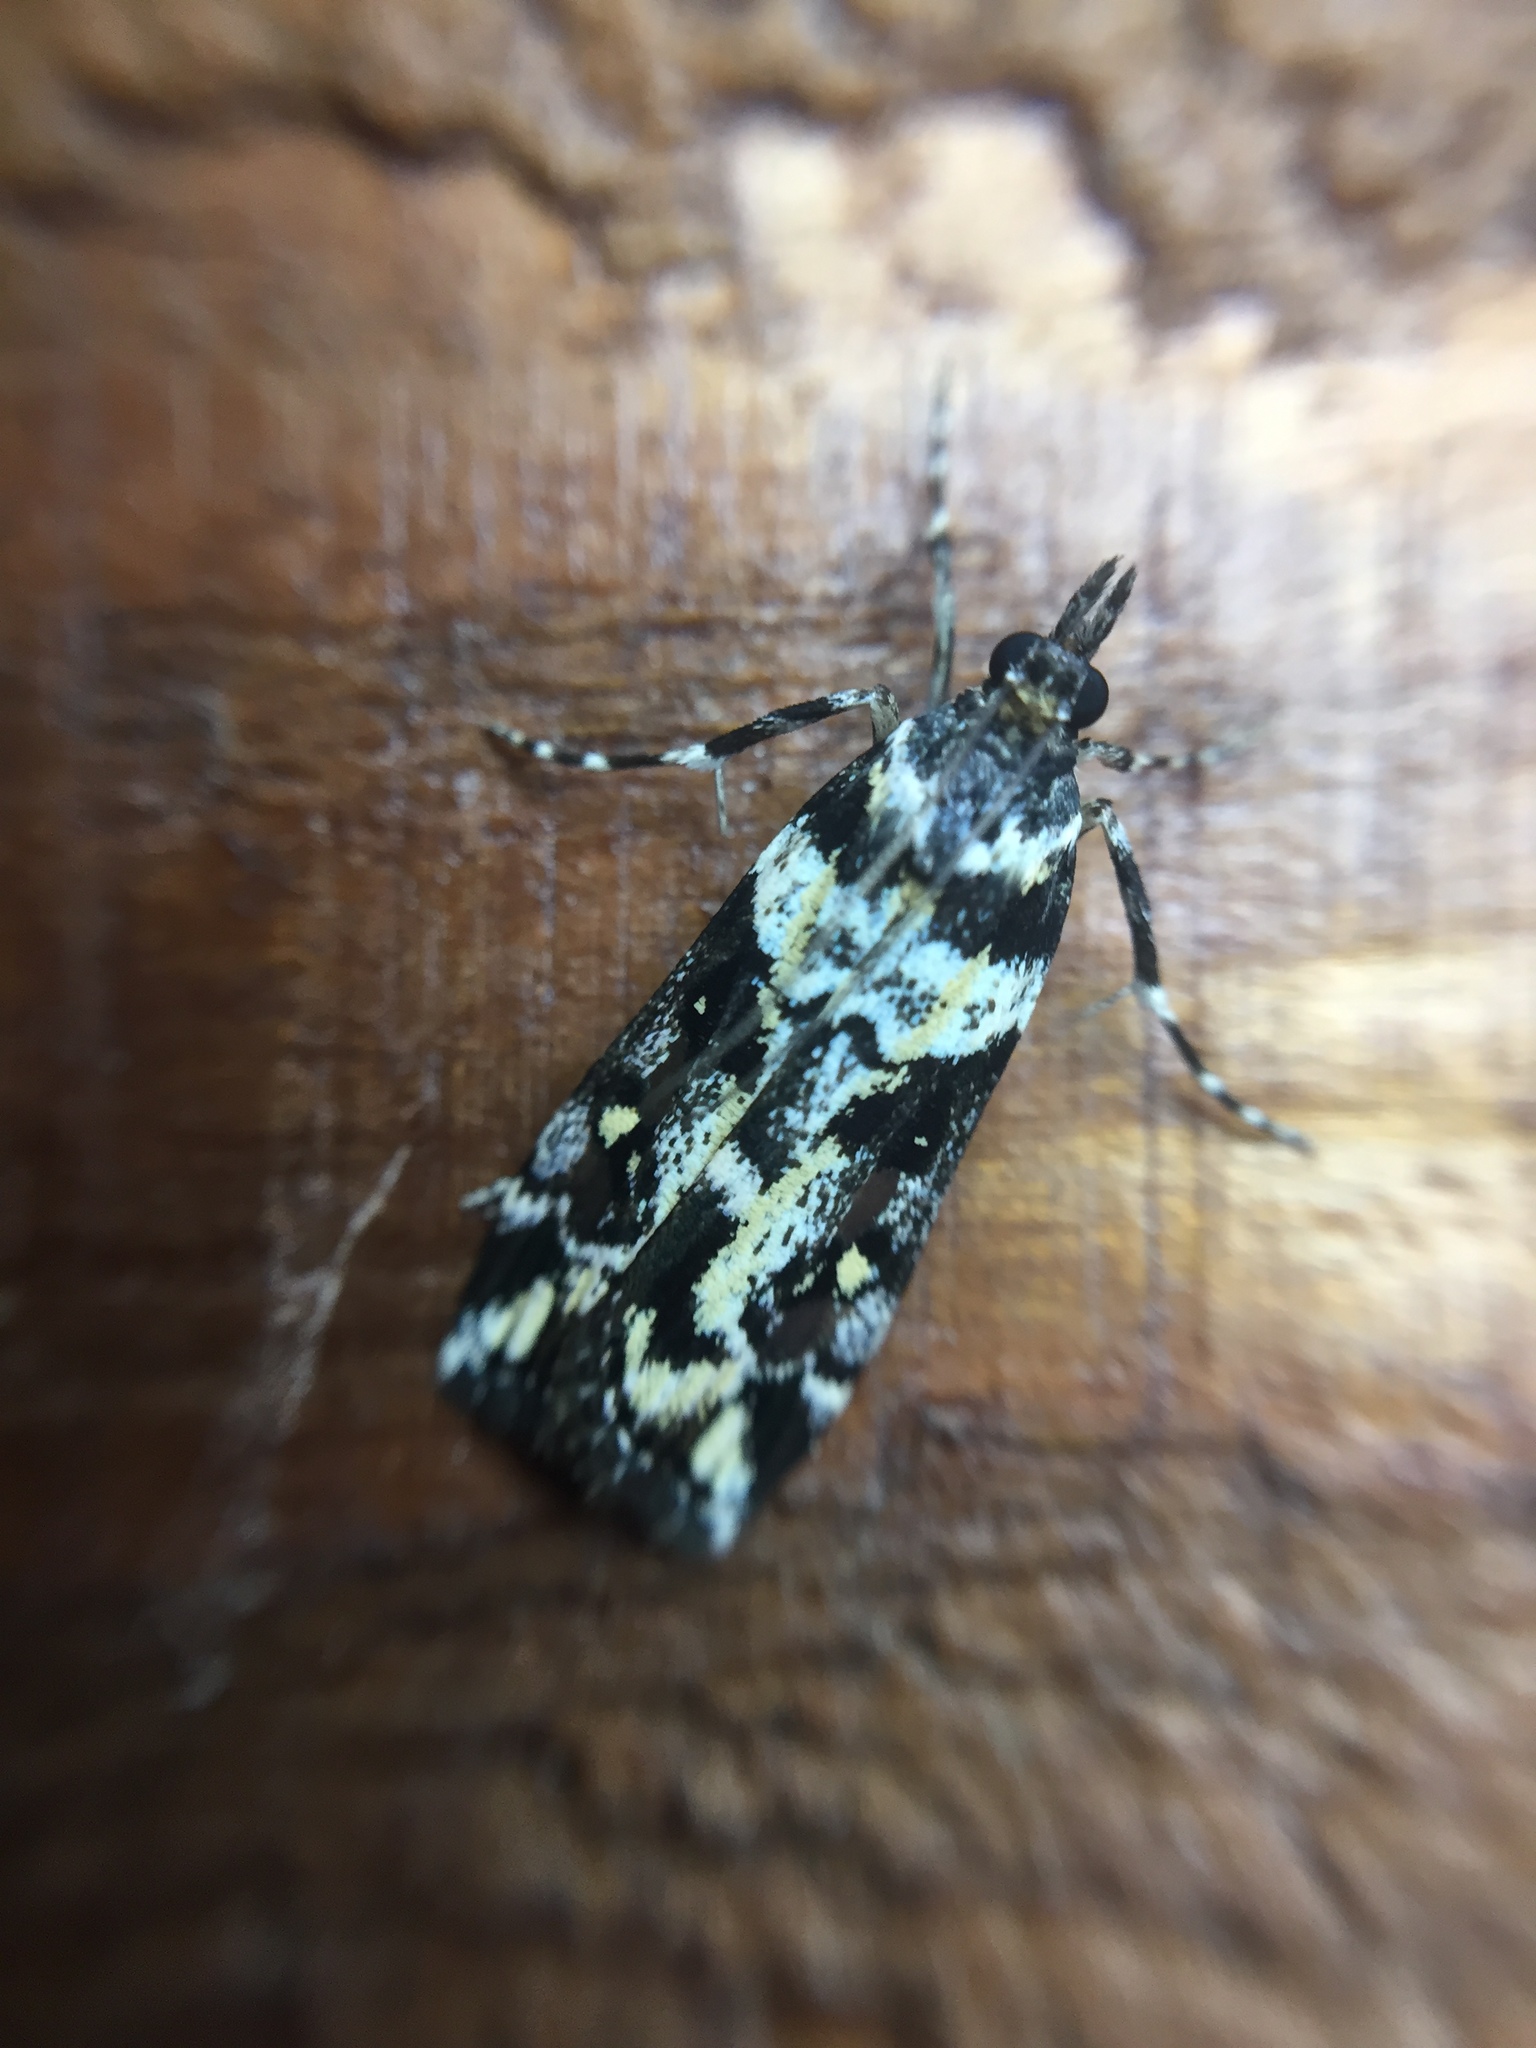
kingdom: Animalia
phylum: Arthropoda
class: Insecta
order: Lepidoptera
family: Crambidae
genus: Eudonia
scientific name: Eudonia diphtheralis
